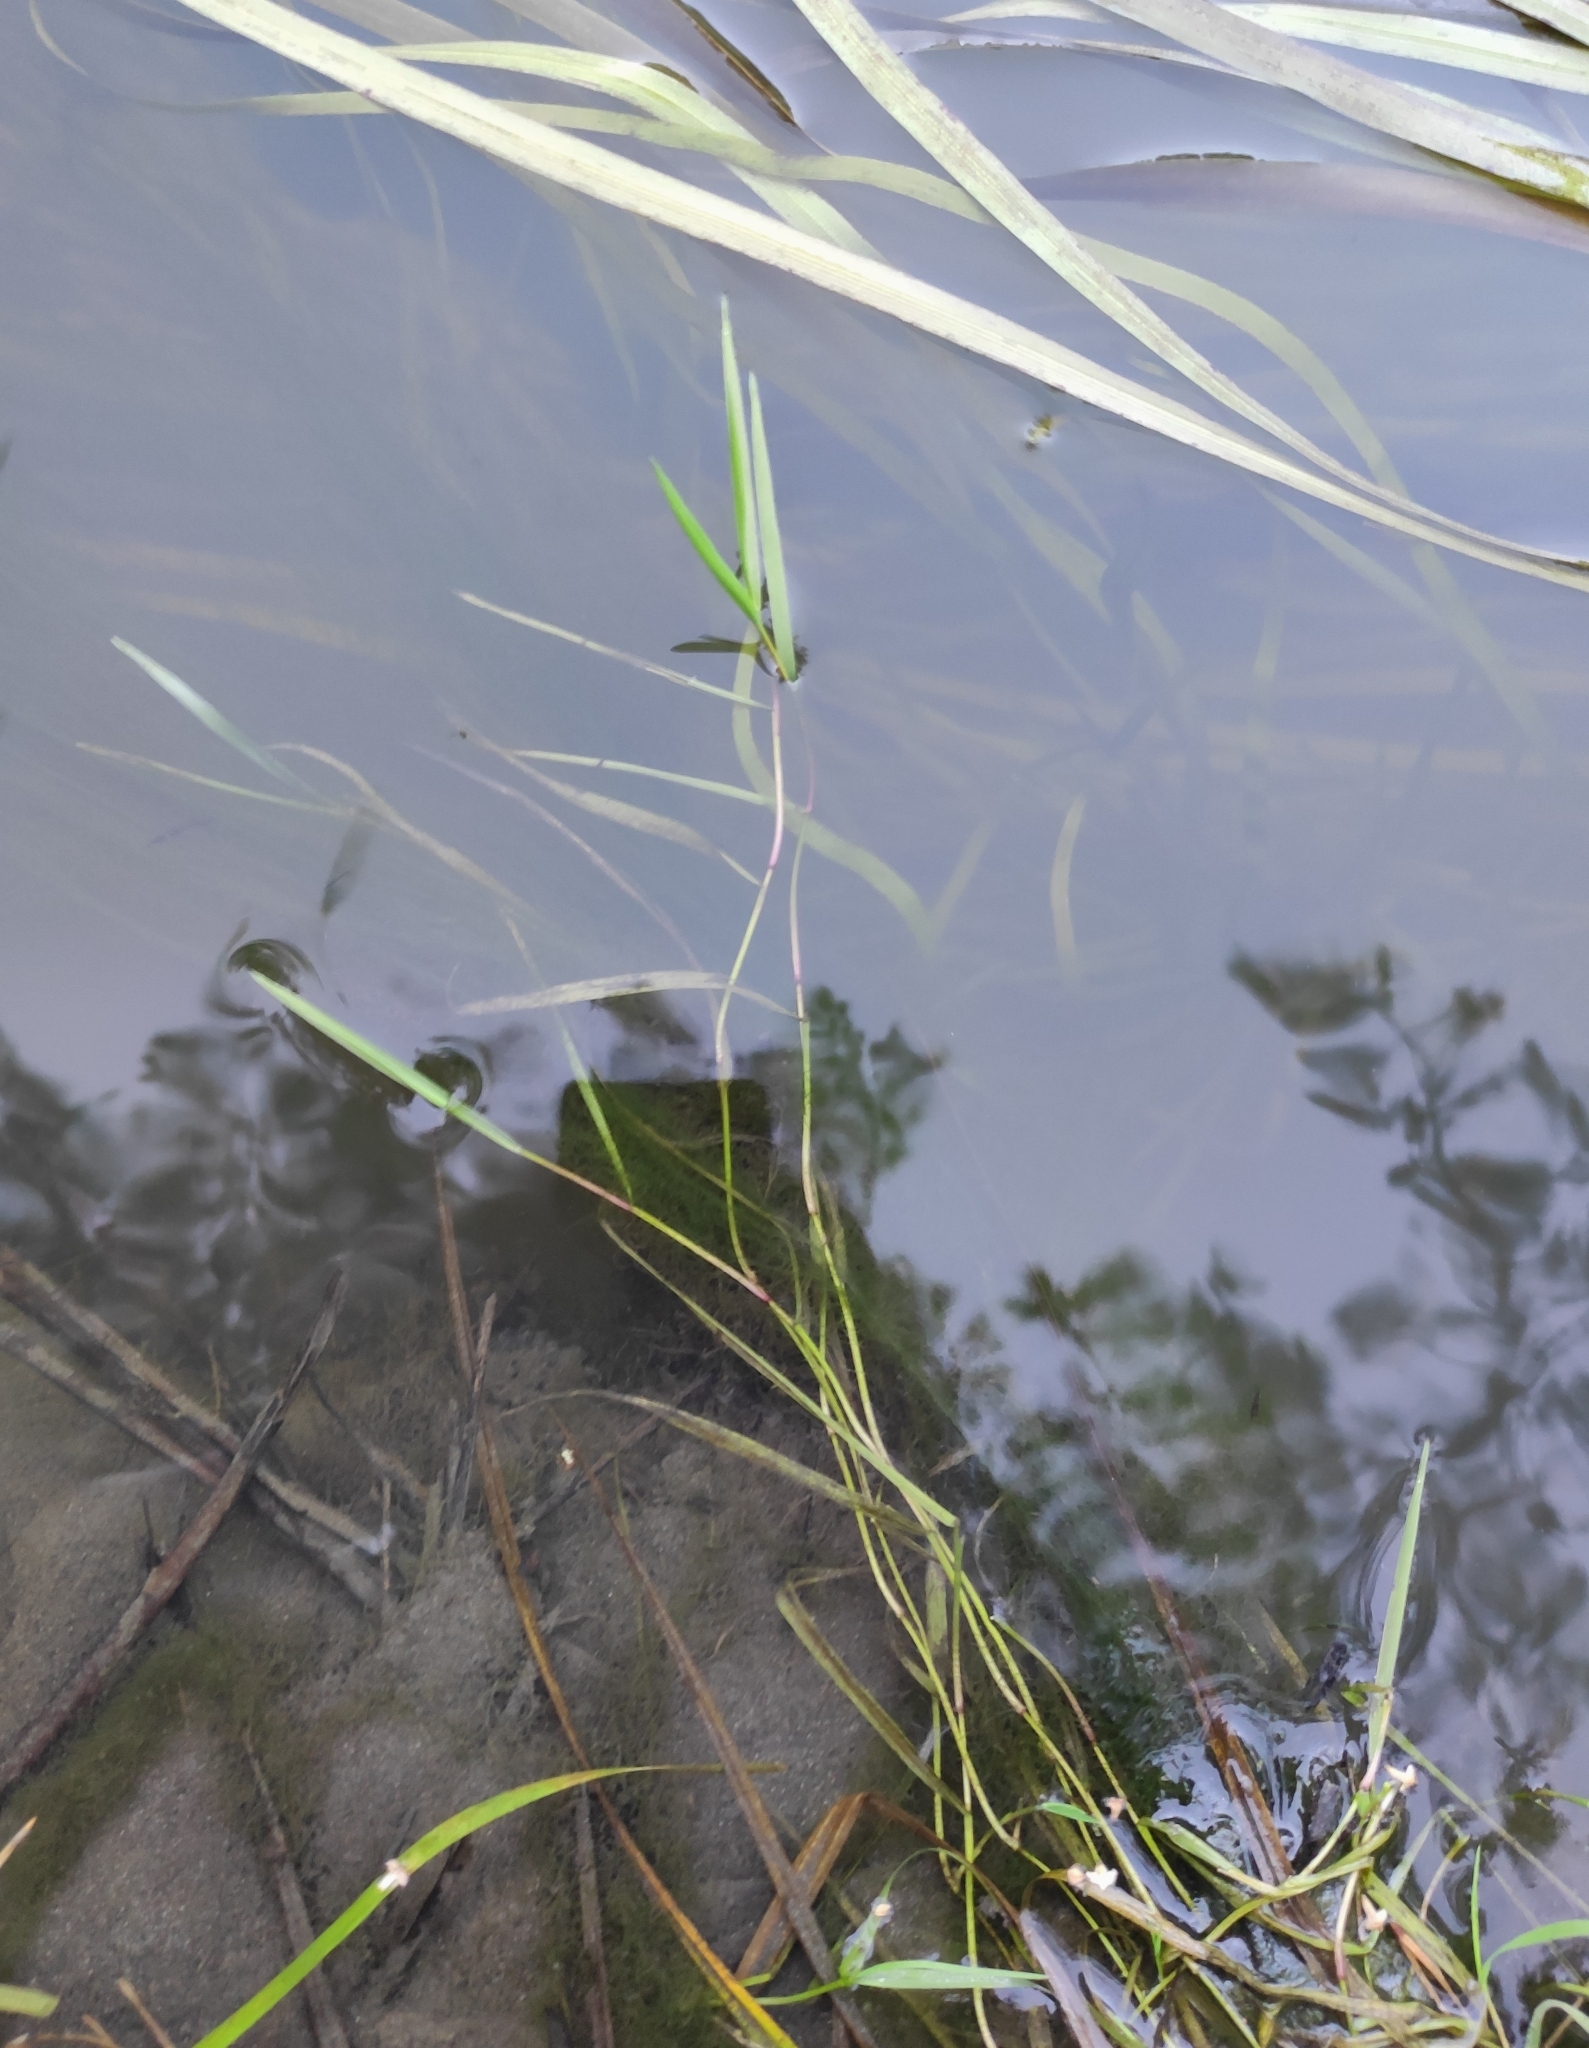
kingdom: Plantae
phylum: Tracheophyta
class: Liliopsida
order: Poales
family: Poaceae
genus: Agrostis
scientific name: Agrostis stolonifera
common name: Creeping bentgrass
